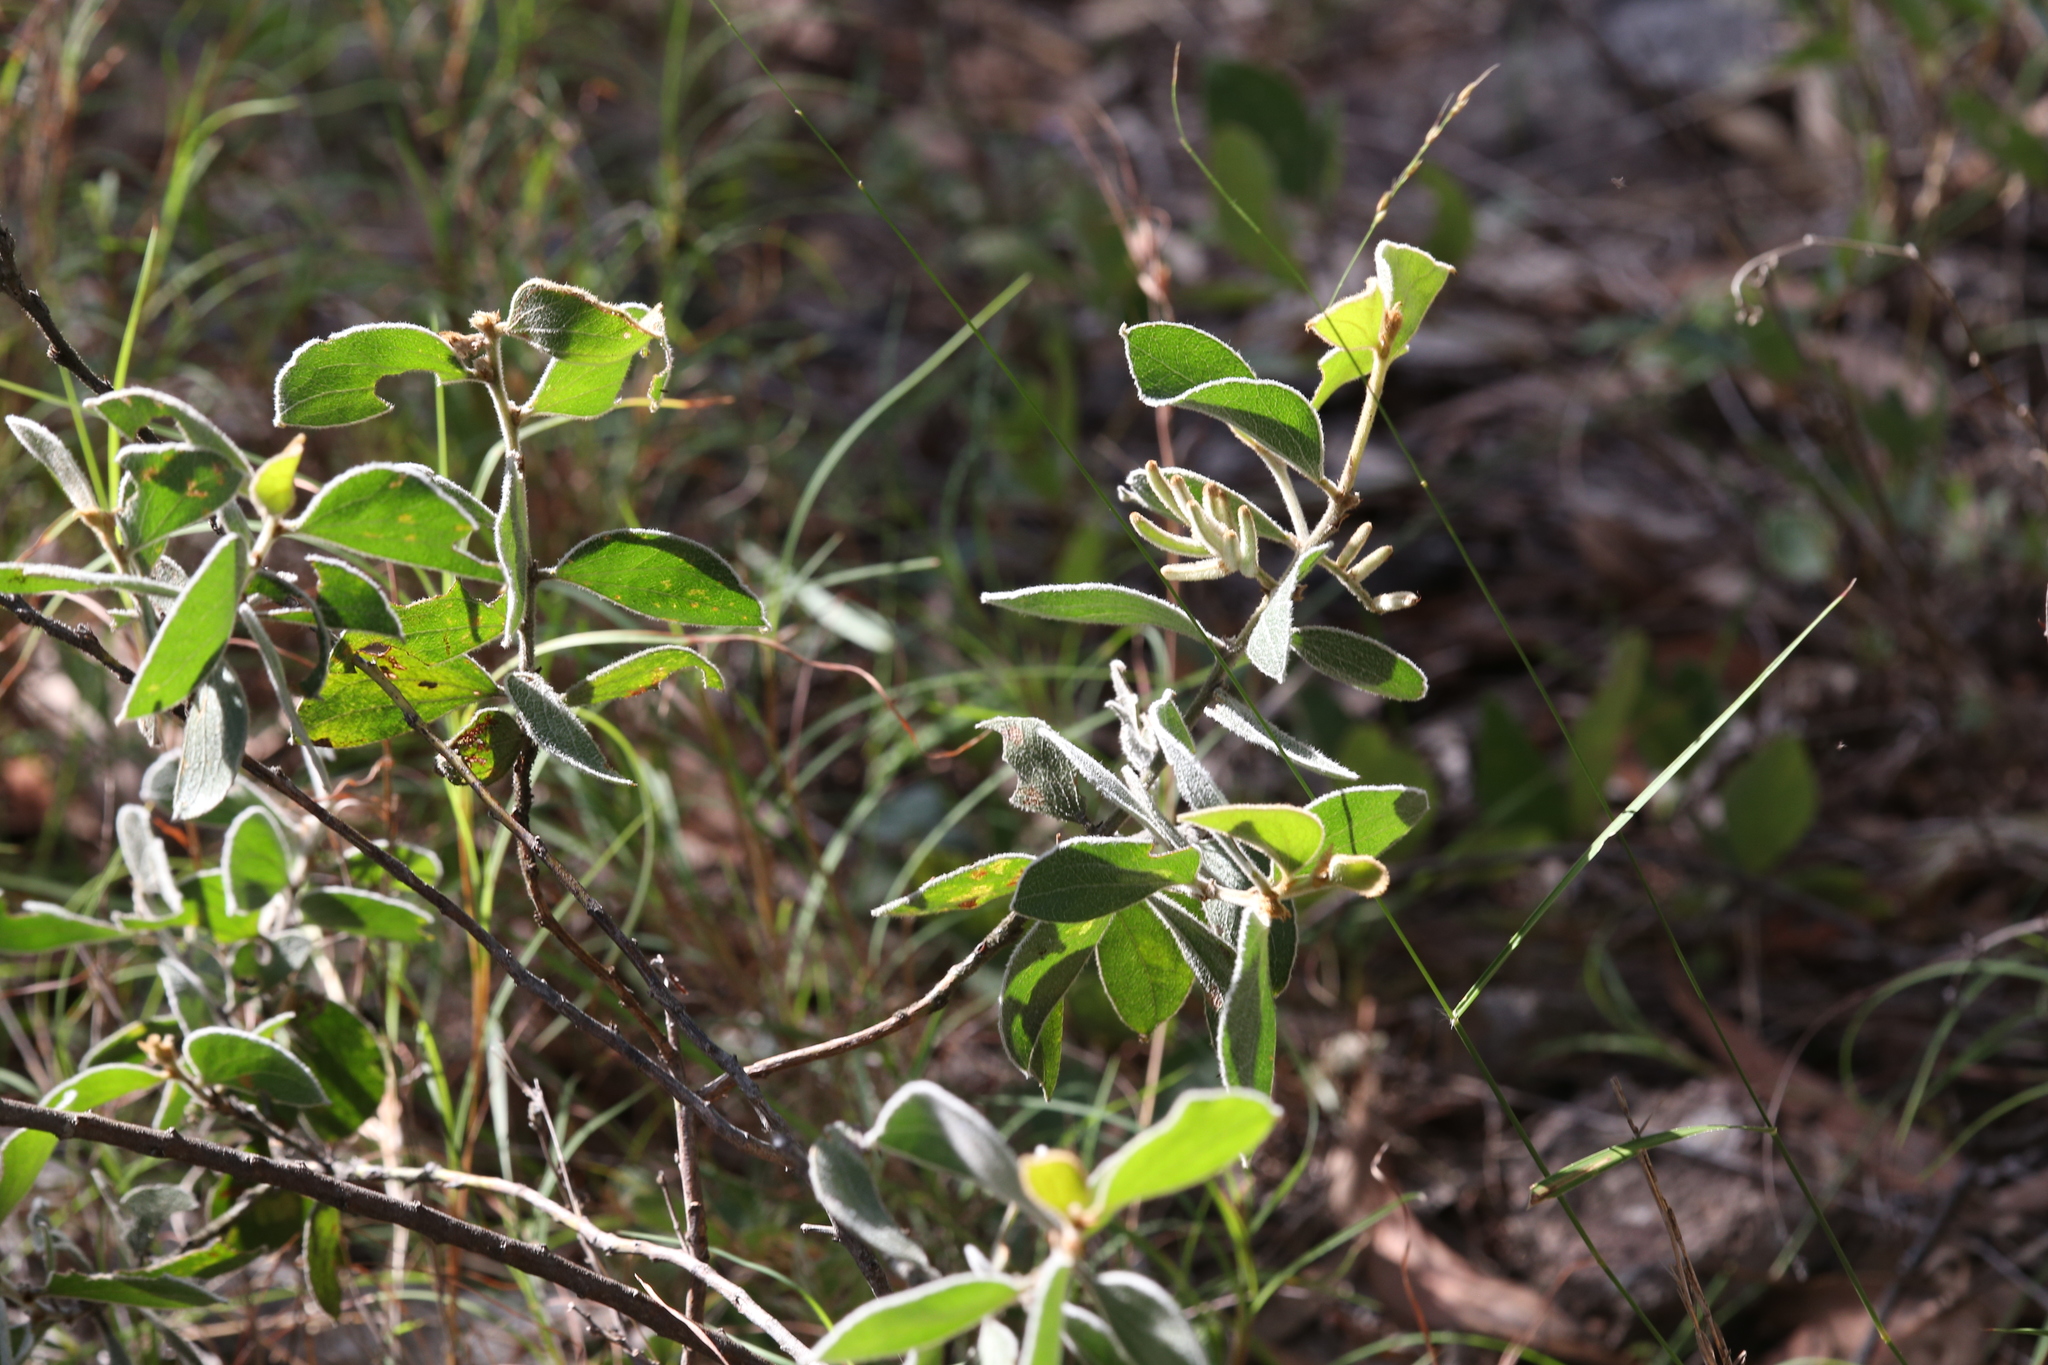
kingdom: Plantae
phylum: Tracheophyta
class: Magnoliopsida
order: Fabales
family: Fabaceae
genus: Acacia
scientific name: Acacia humifusa
